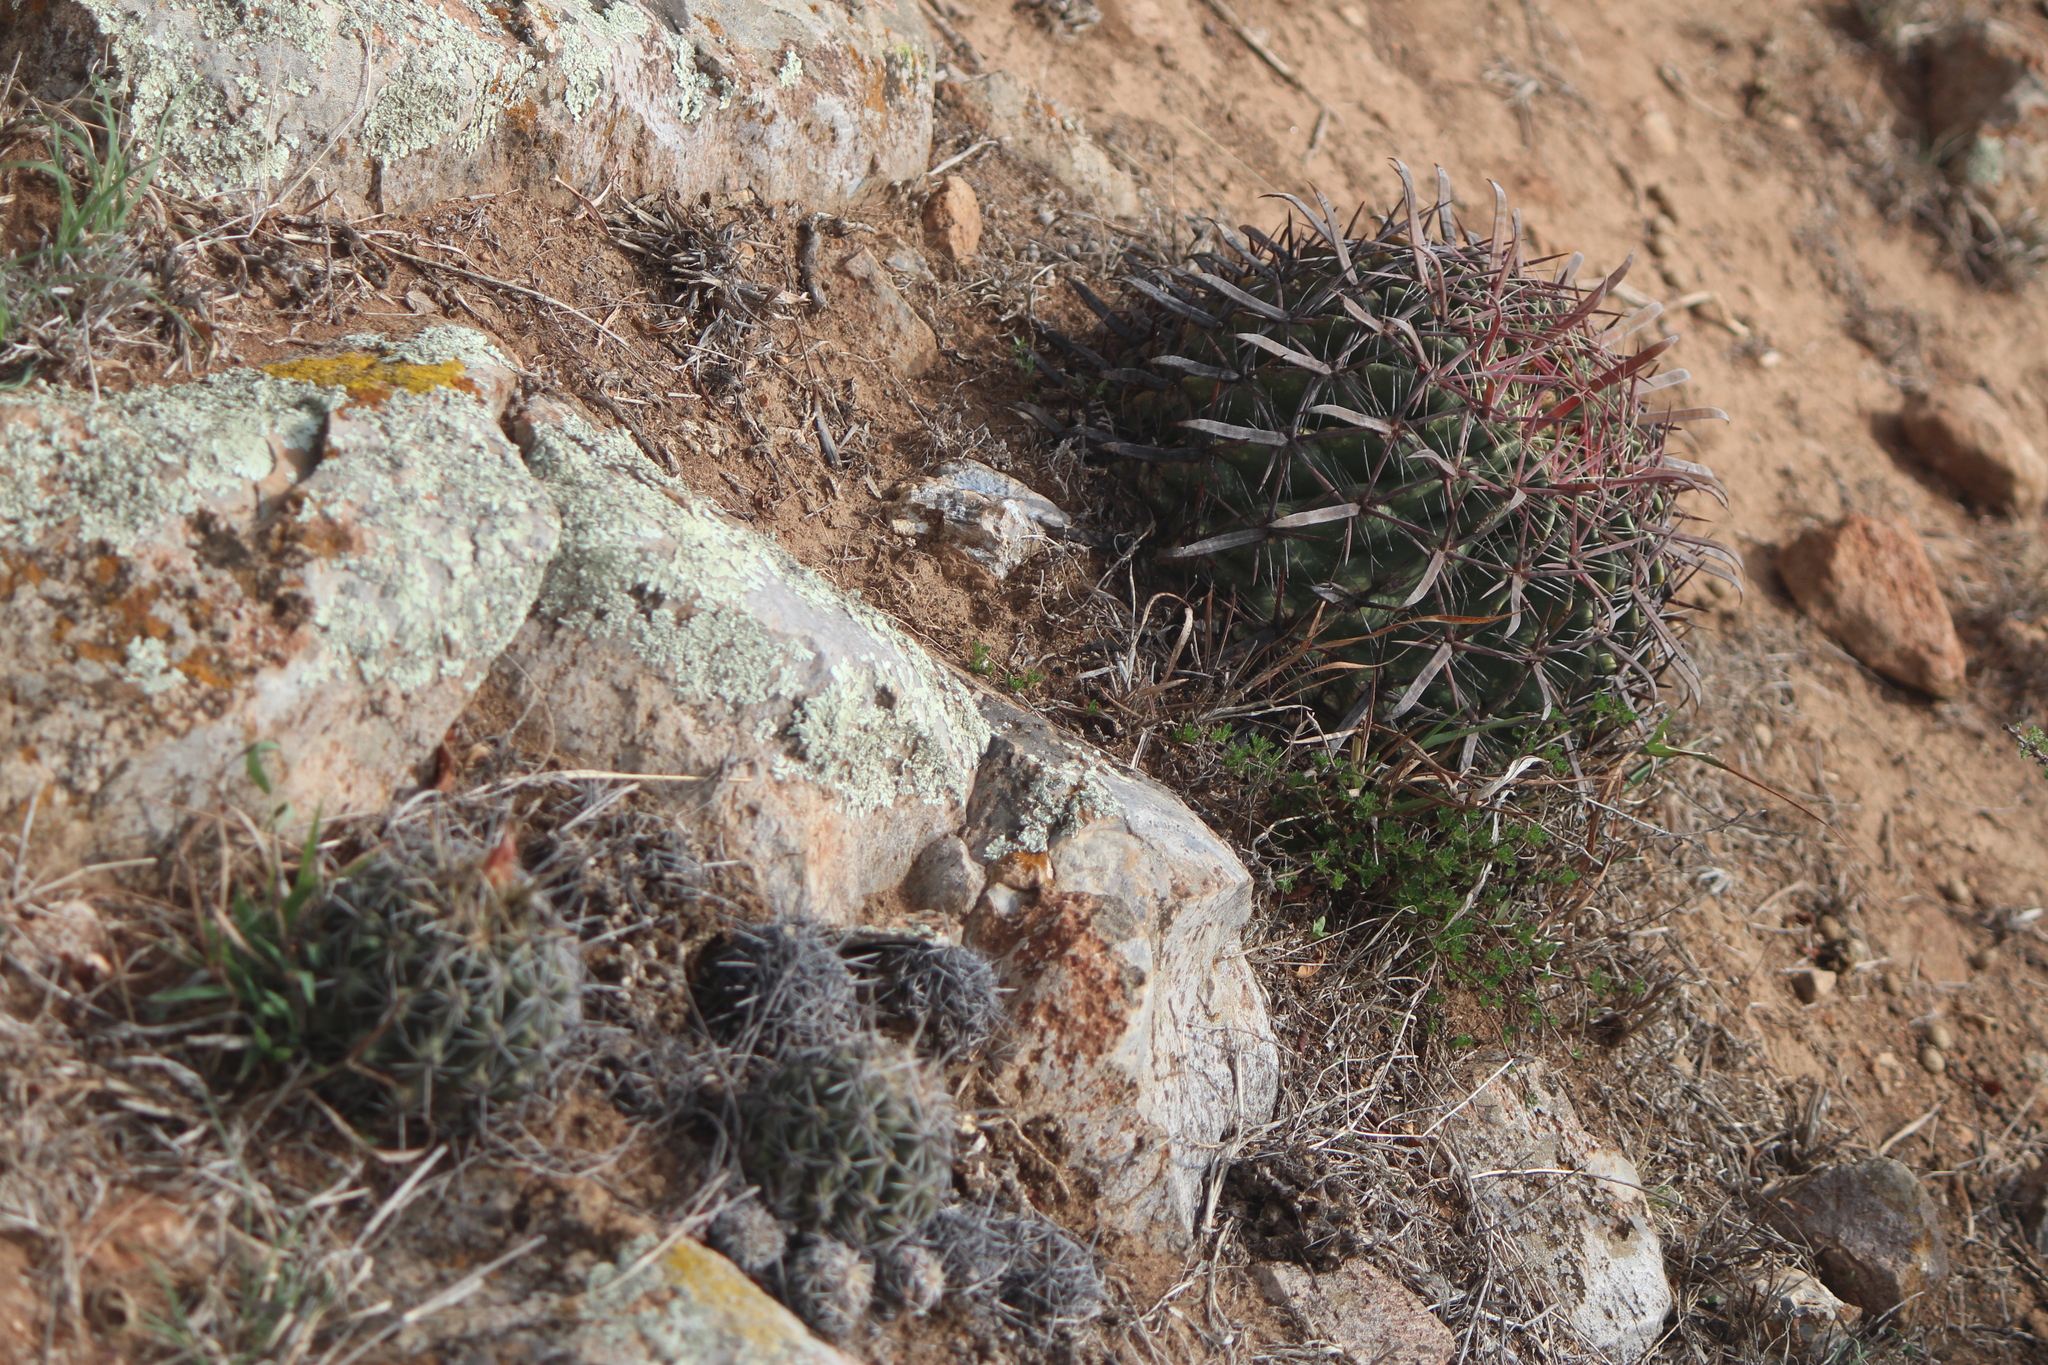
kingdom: Plantae
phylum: Tracheophyta
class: Magnoliopsida
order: Caryophyllales
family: Cactaceae
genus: Ferocactus
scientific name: Ferocactus latispinus
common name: Devil's-tongue cactus
